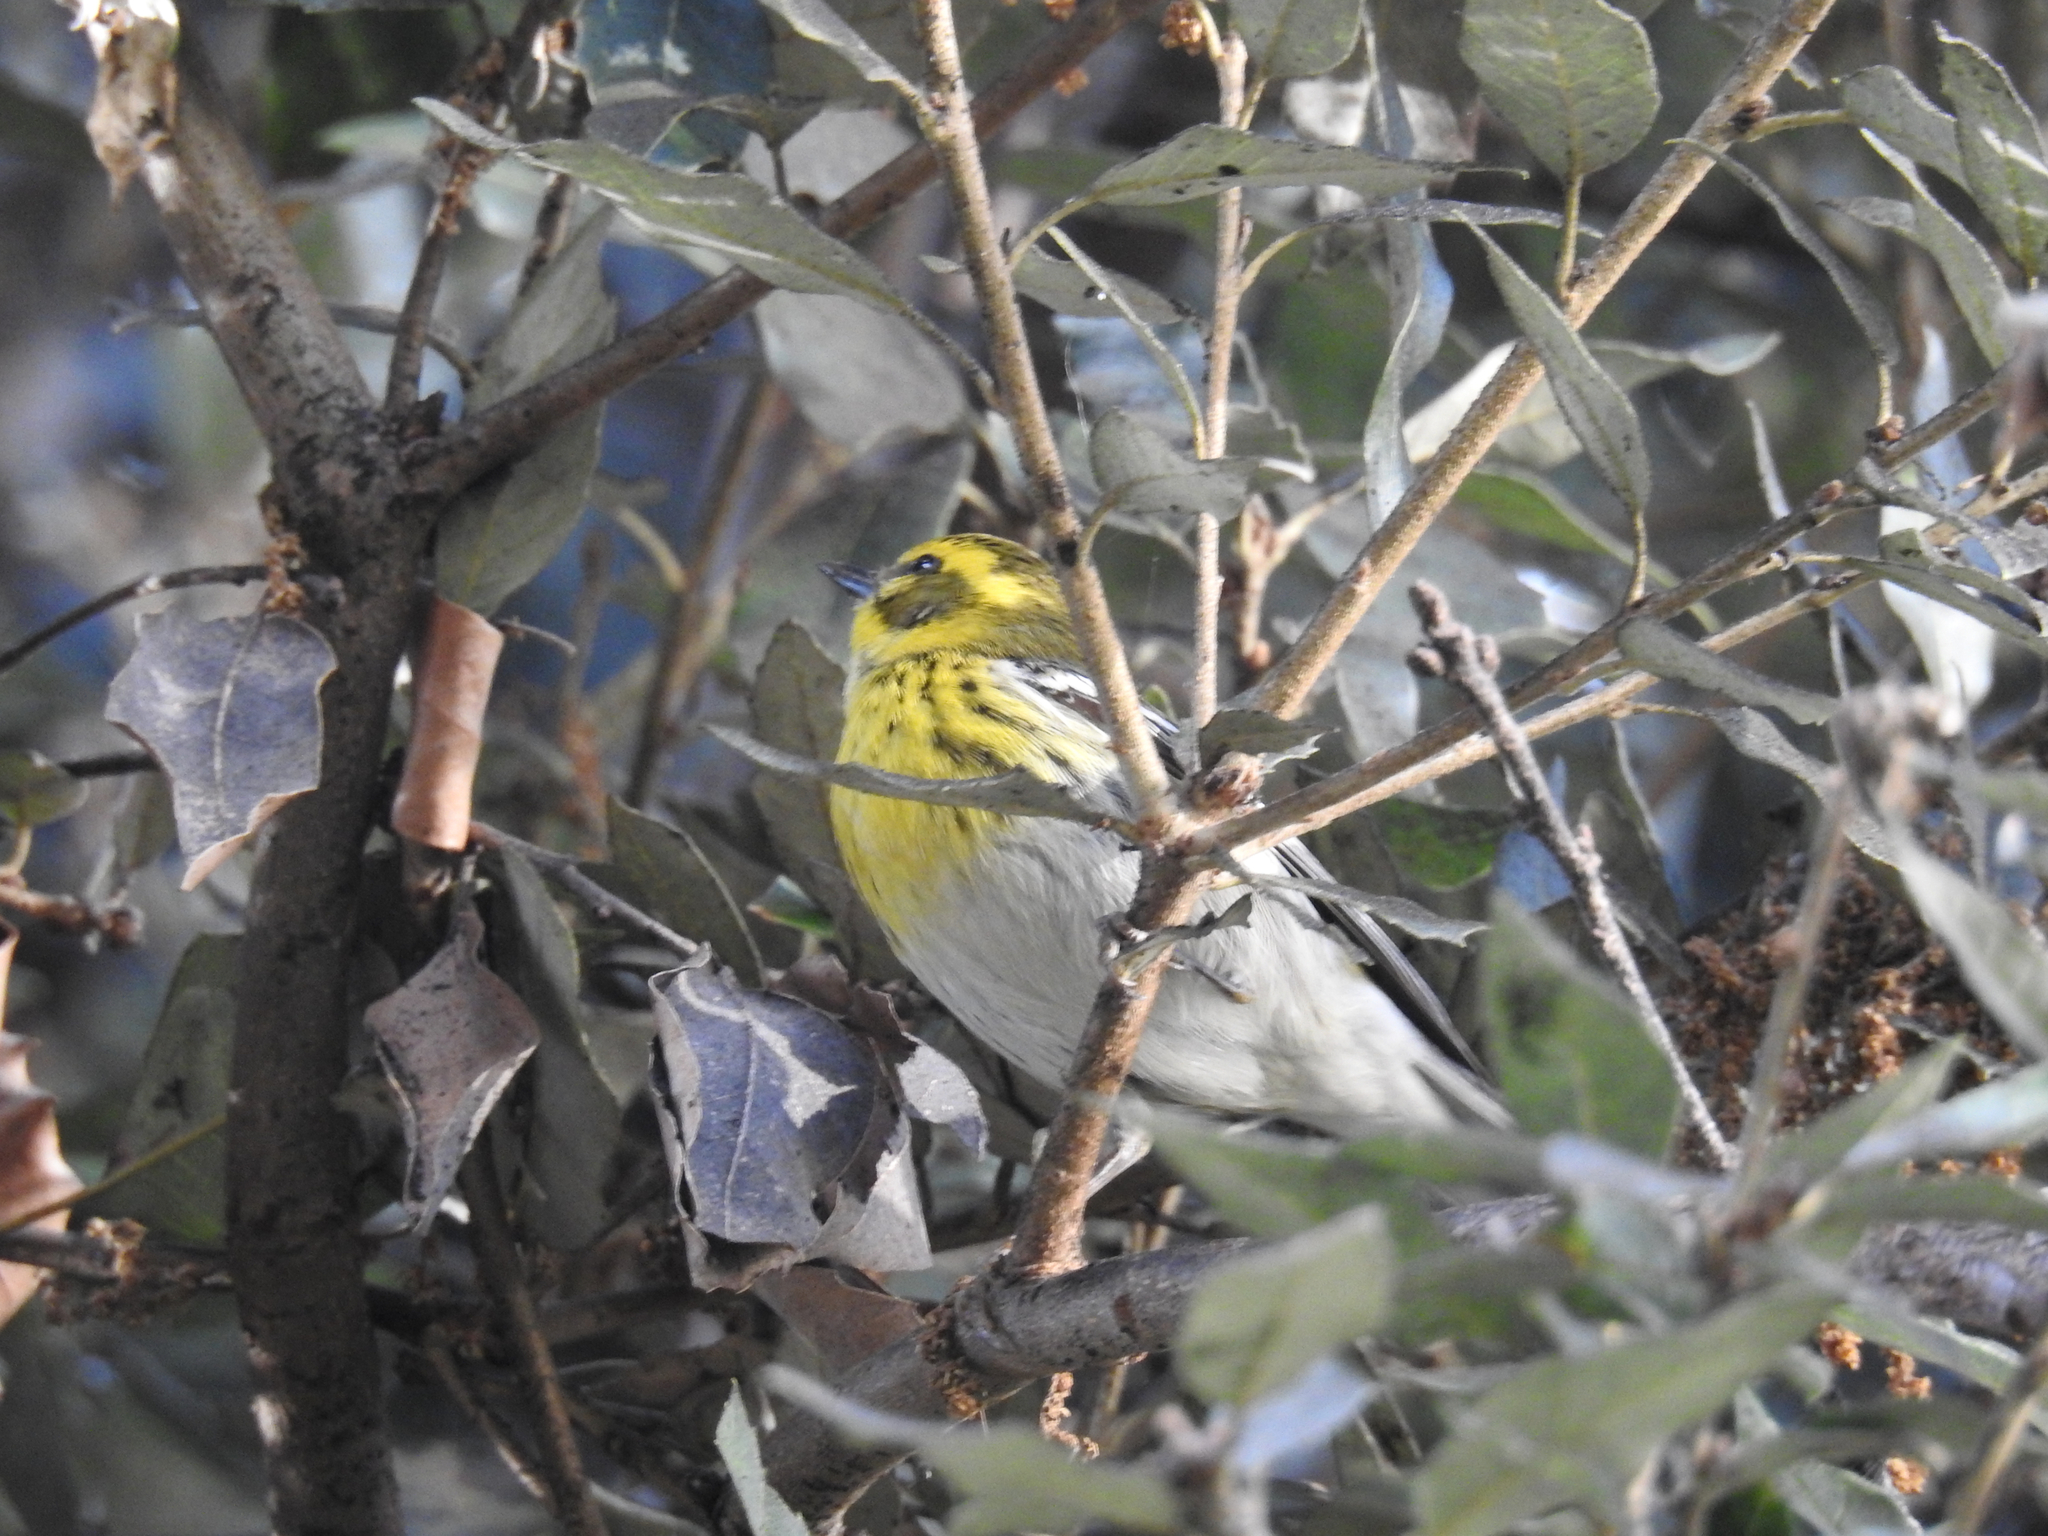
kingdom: Animalia
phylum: Chordata
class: Aves
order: Passeriformes
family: Parulidae
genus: Setophaga
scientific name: Setophaga townsendi
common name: Townsend's warbler
